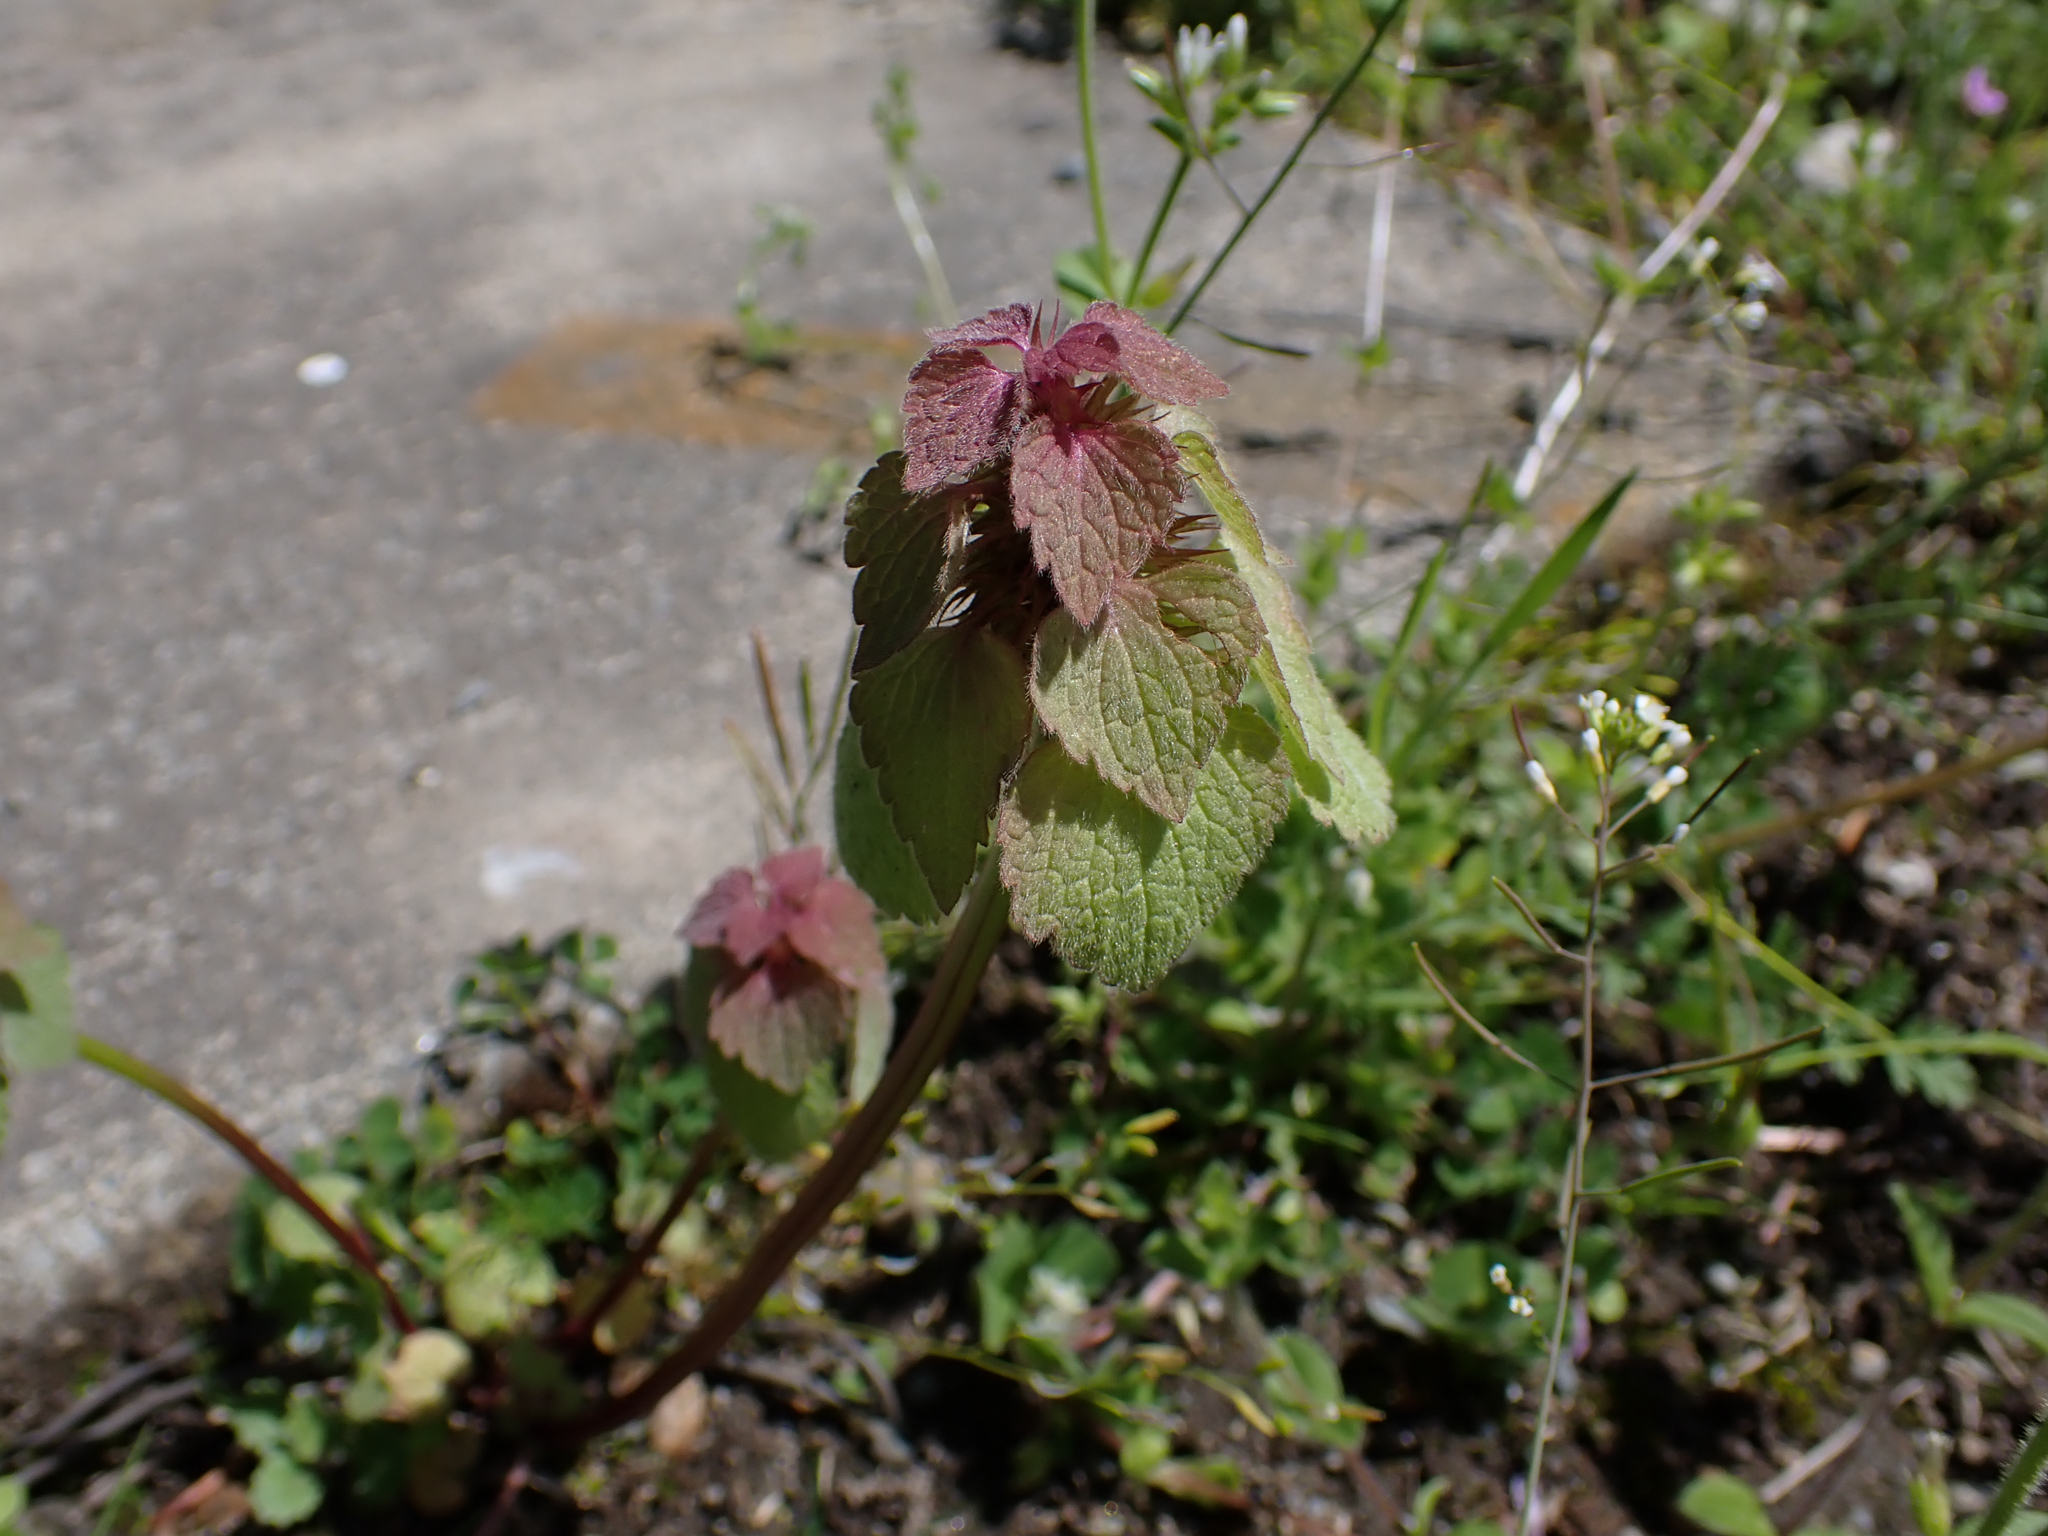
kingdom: Plantae
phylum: Tracheophyta
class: Magnoliopsida
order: Lamiales
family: Lamiaceae
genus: Lamium
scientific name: Lamium purpureum
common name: Red dead-nettle
